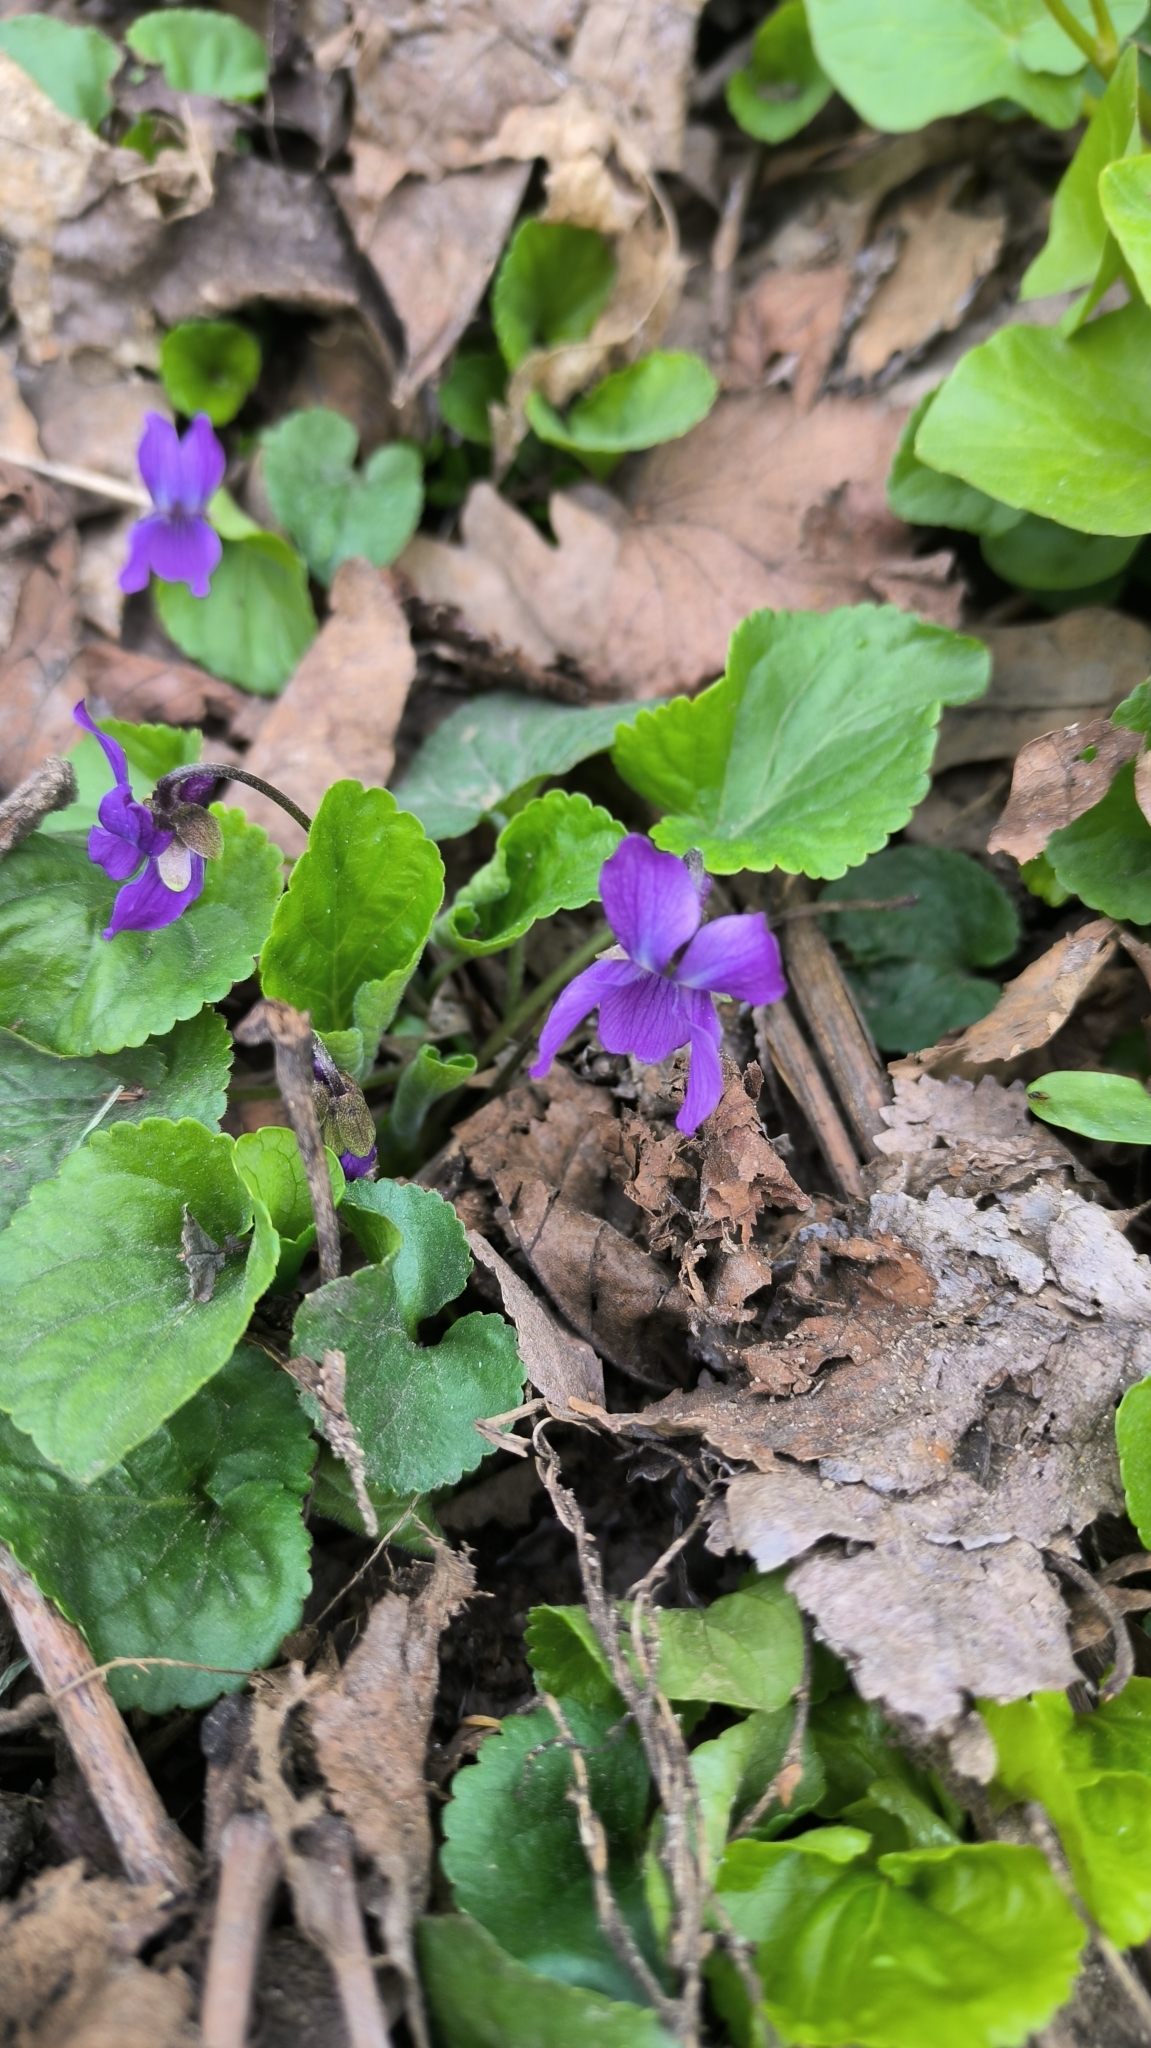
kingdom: Plantae
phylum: Tracheophyta
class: Magnoliopsida
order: Malpighiales
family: Violaceae
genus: Viola
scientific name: Viola odorata
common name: Sweet violet
